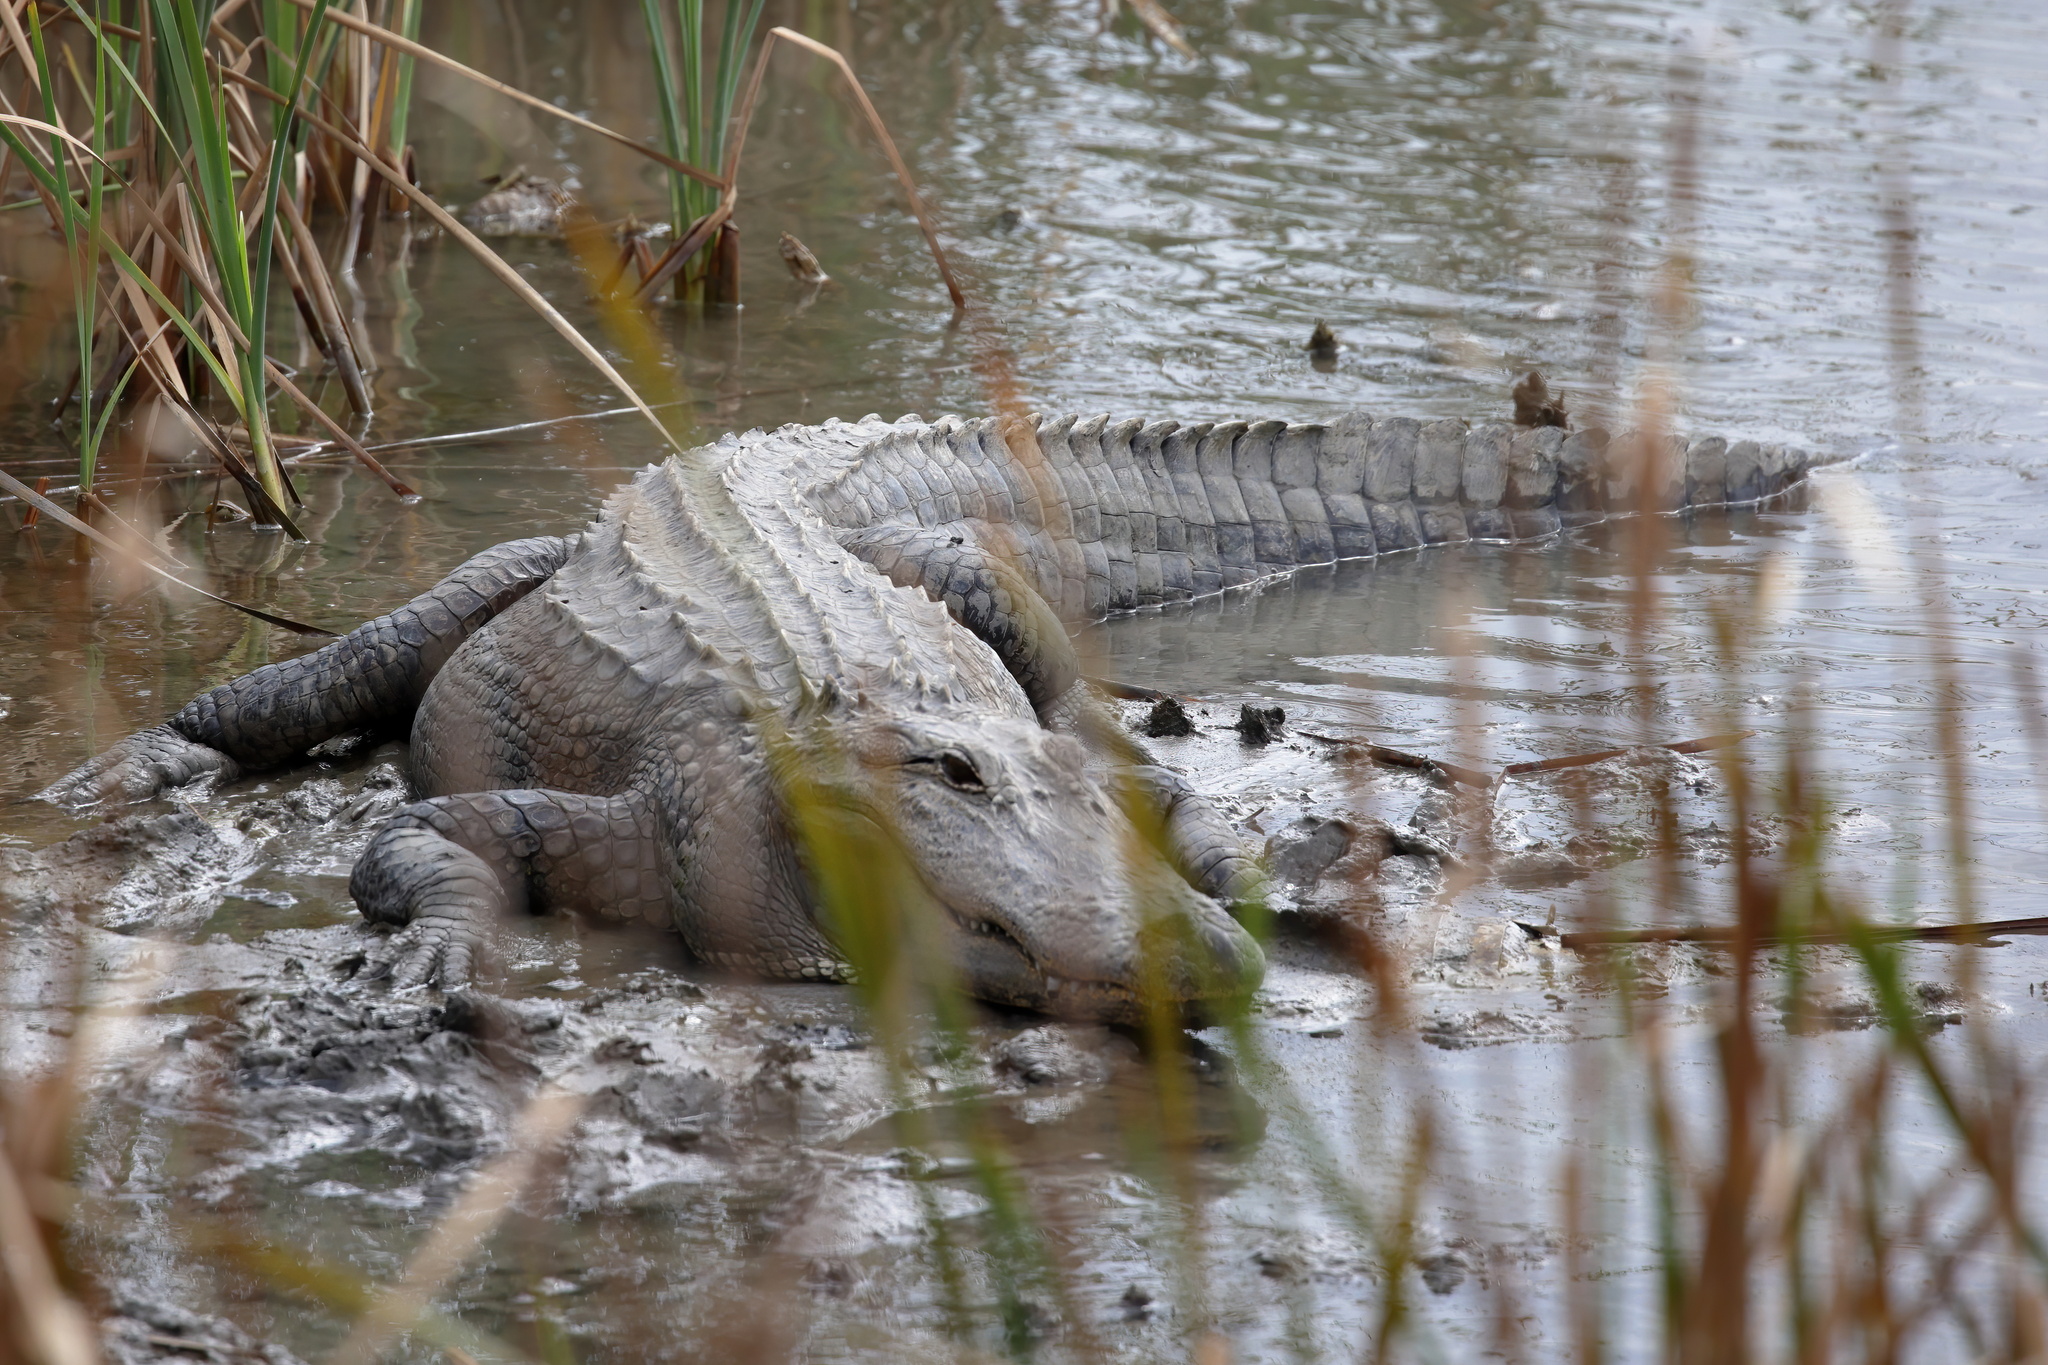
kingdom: Animalia
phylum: Chordata
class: Crocodylia
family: Alligatoridae
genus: Alligator
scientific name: Alligator mississippiensis
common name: American alligator
